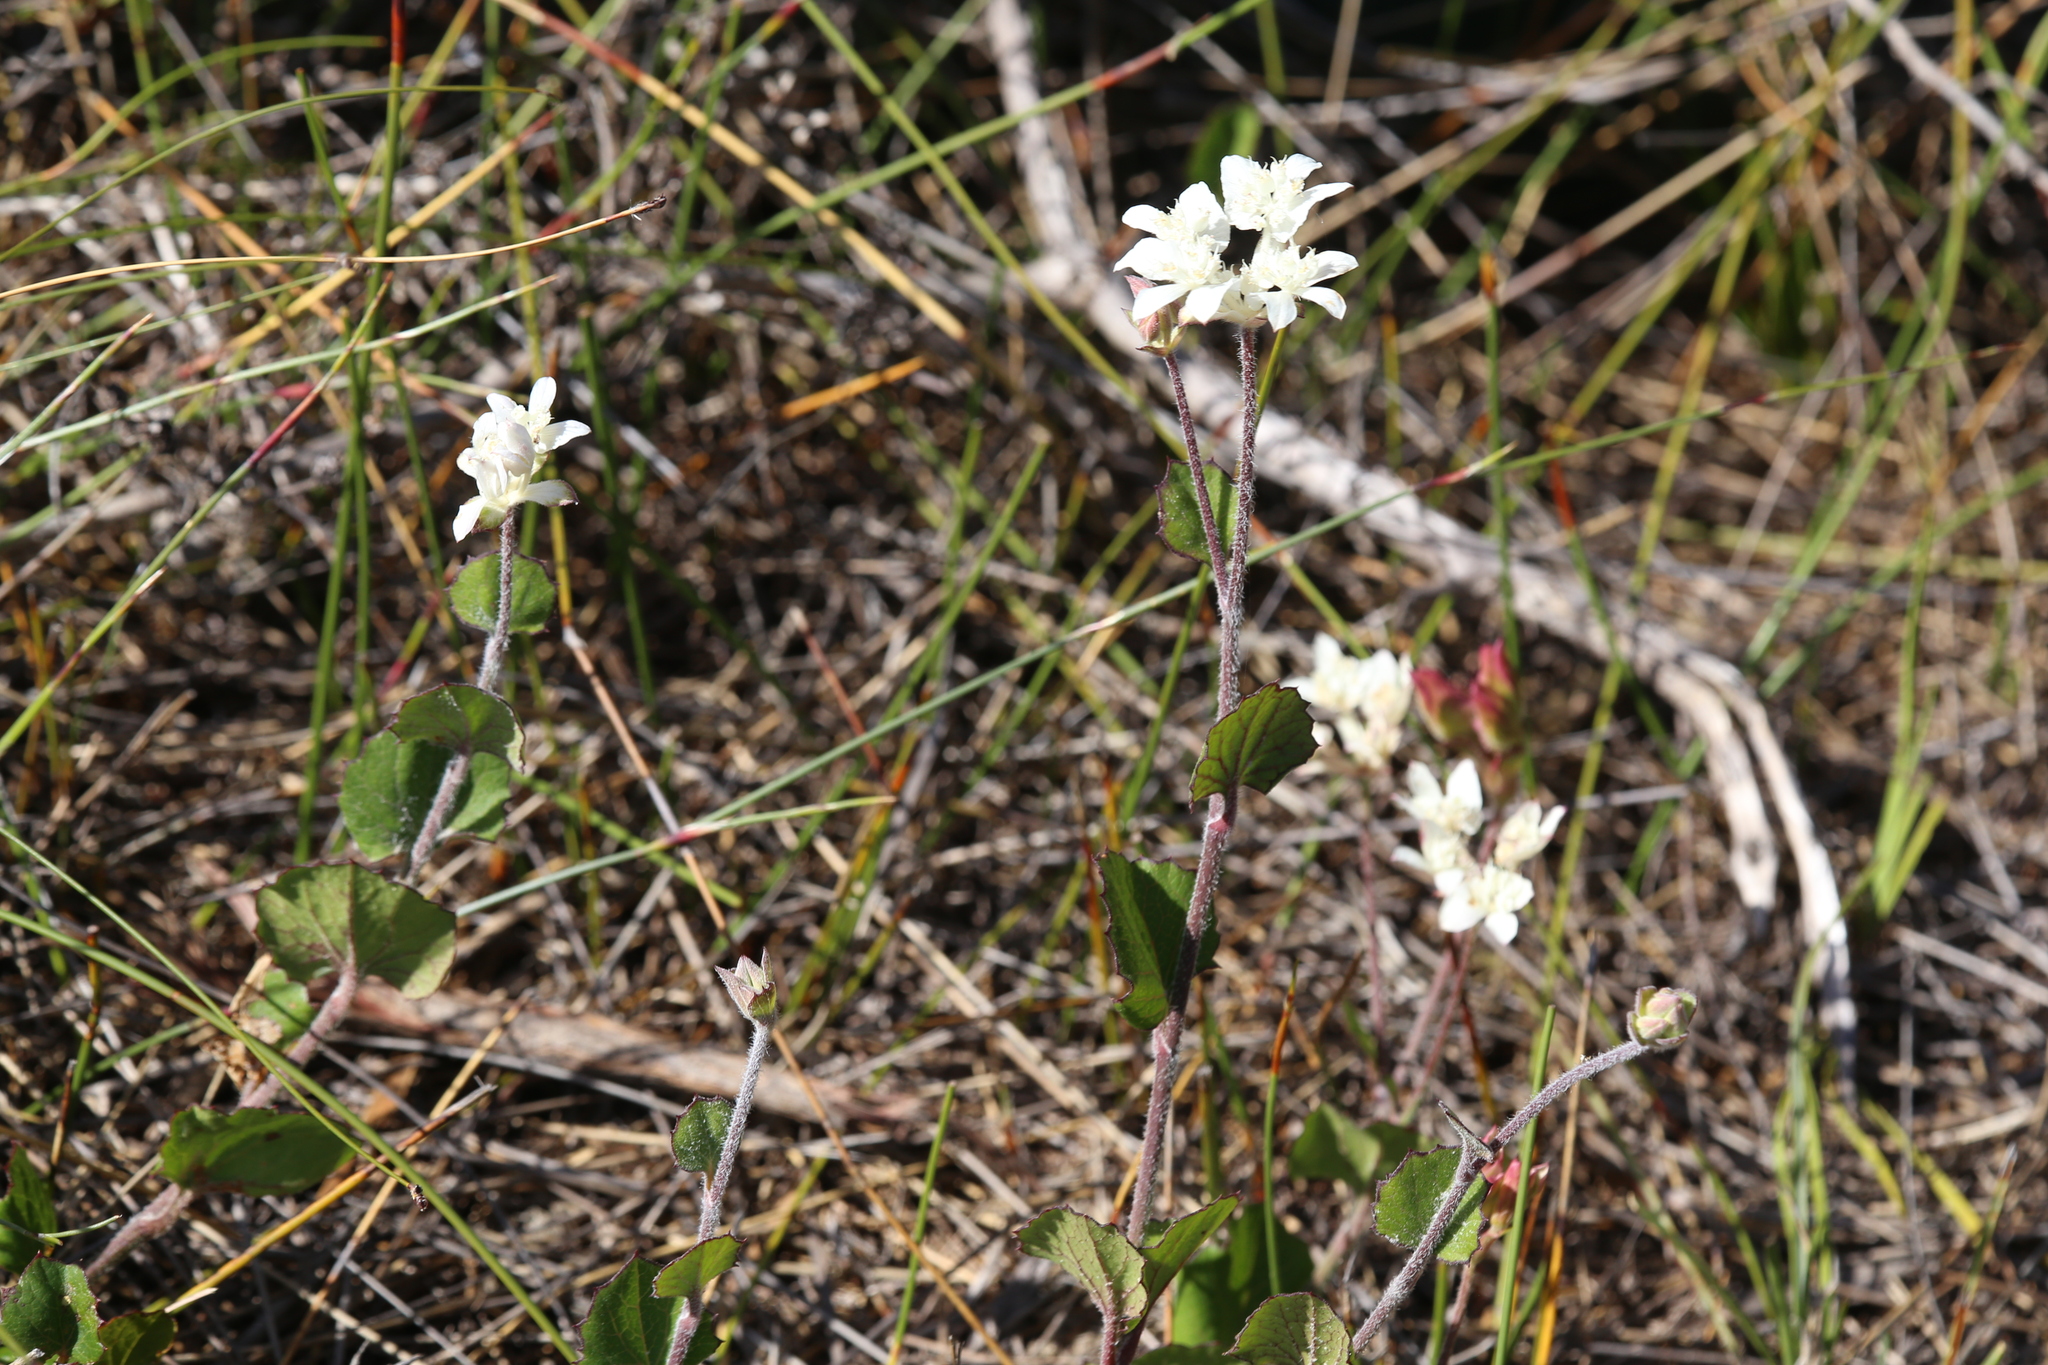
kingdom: Plantae
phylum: Tracheophyta
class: Magnoliopsida
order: Apiales
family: Apiaceae
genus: Xanthosia
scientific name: Xanthosia rotundifolia
